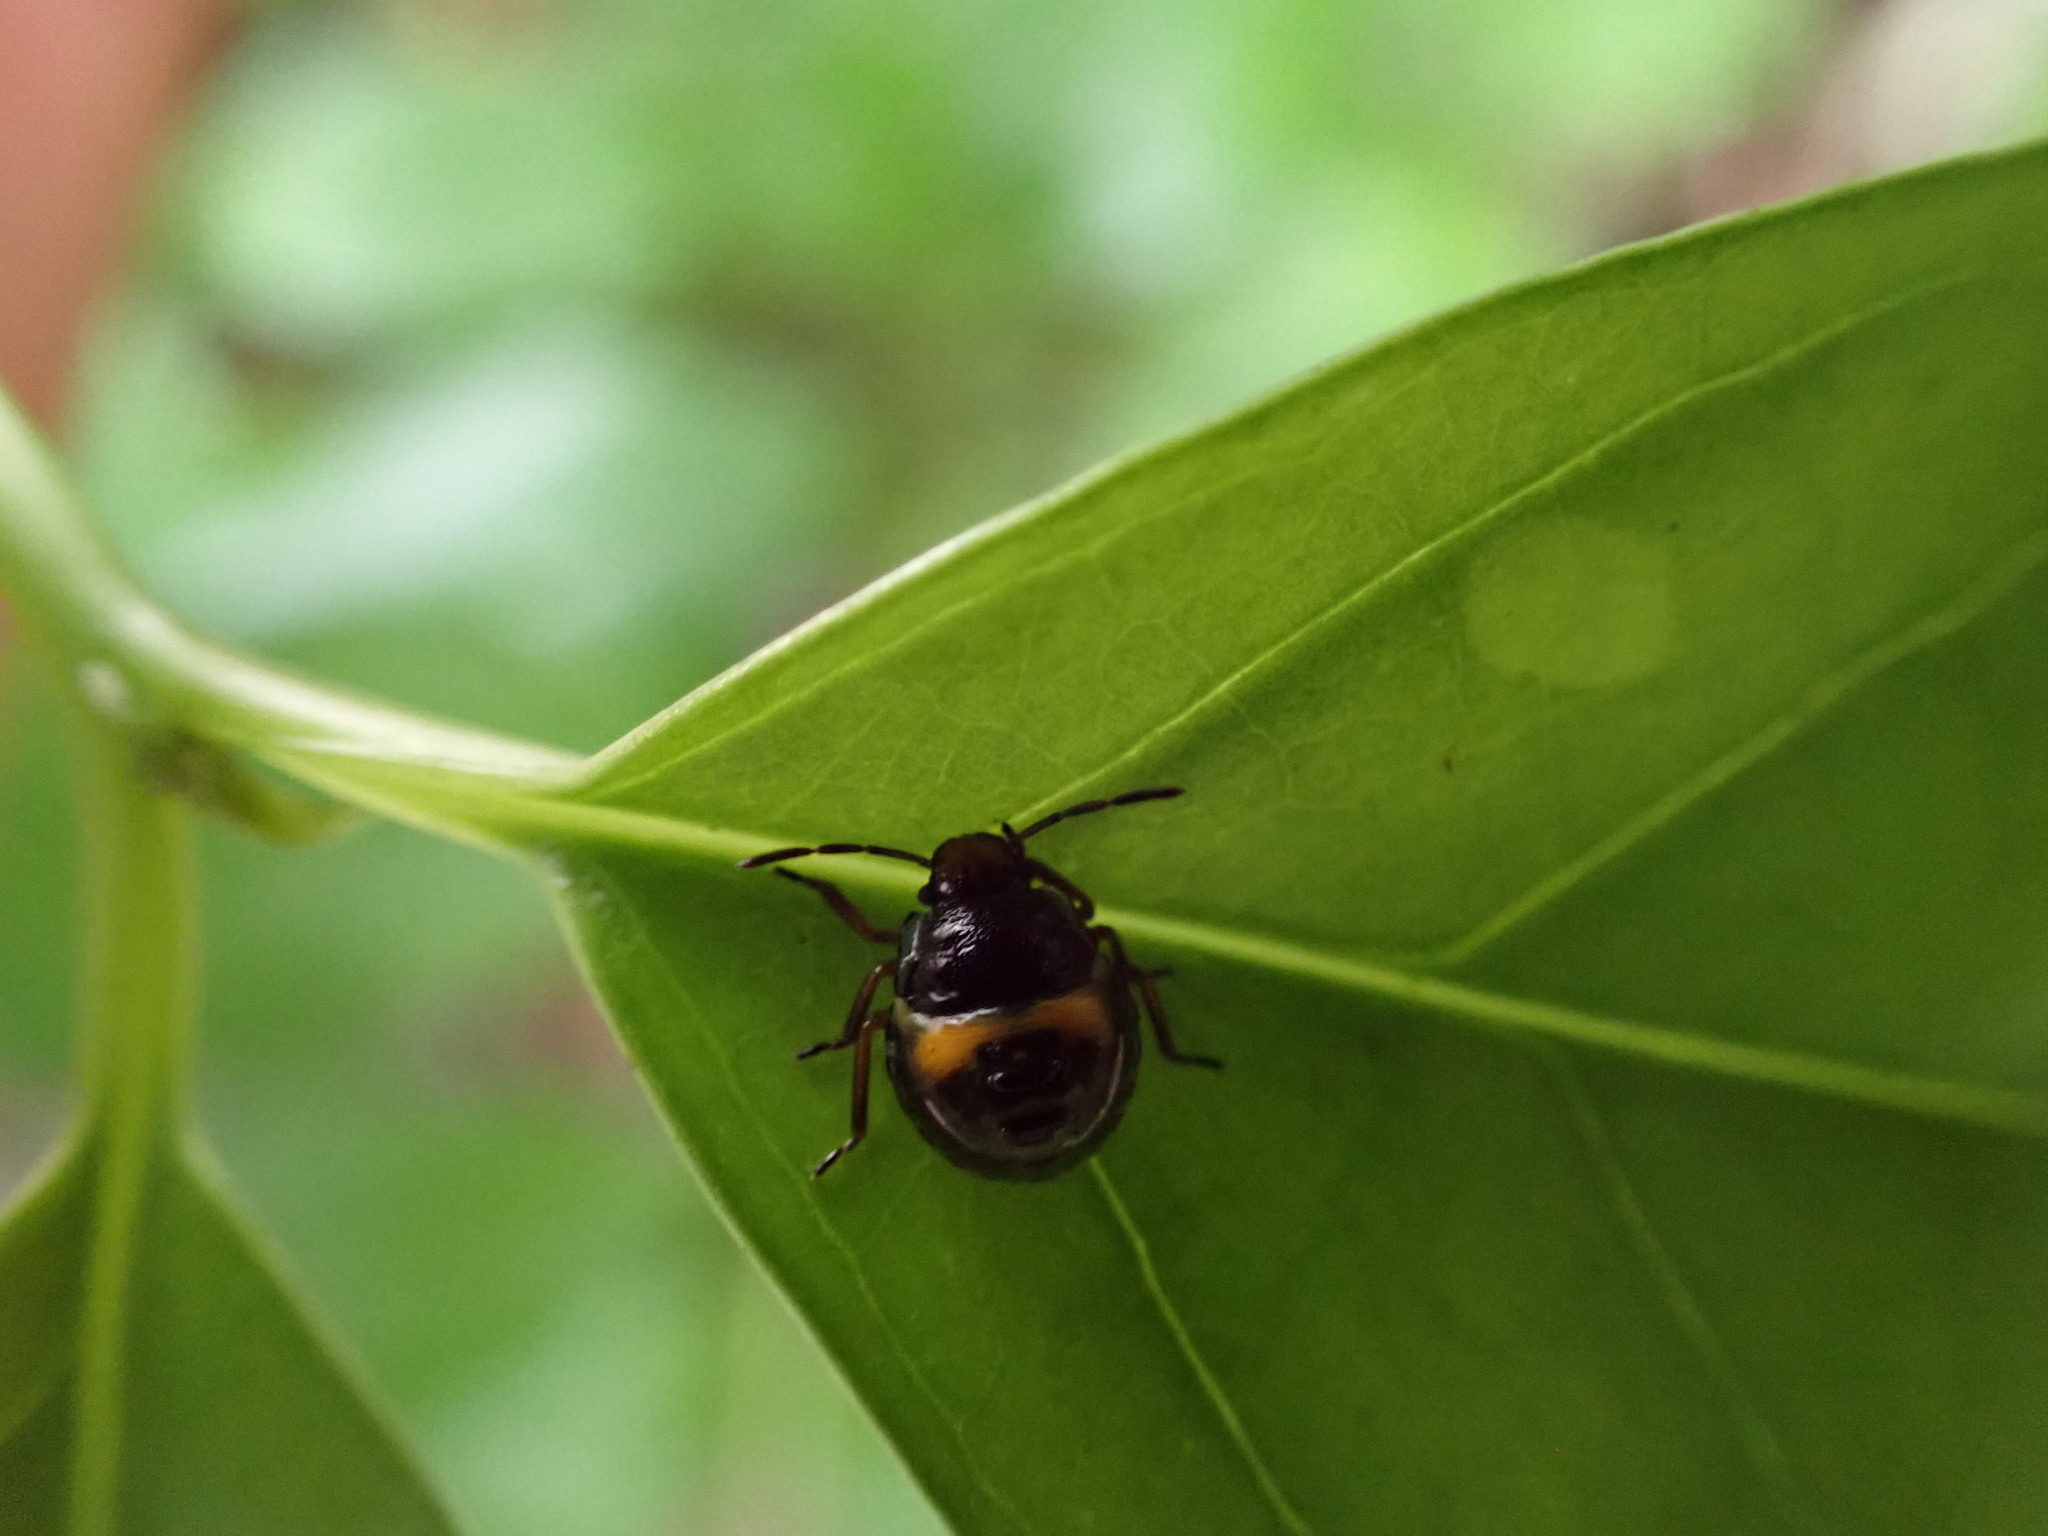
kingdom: Animalia
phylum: Arthropoda
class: Insecta
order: Hemiptera
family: Pentatomidae
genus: Glaucias
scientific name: Glaucias amyota
